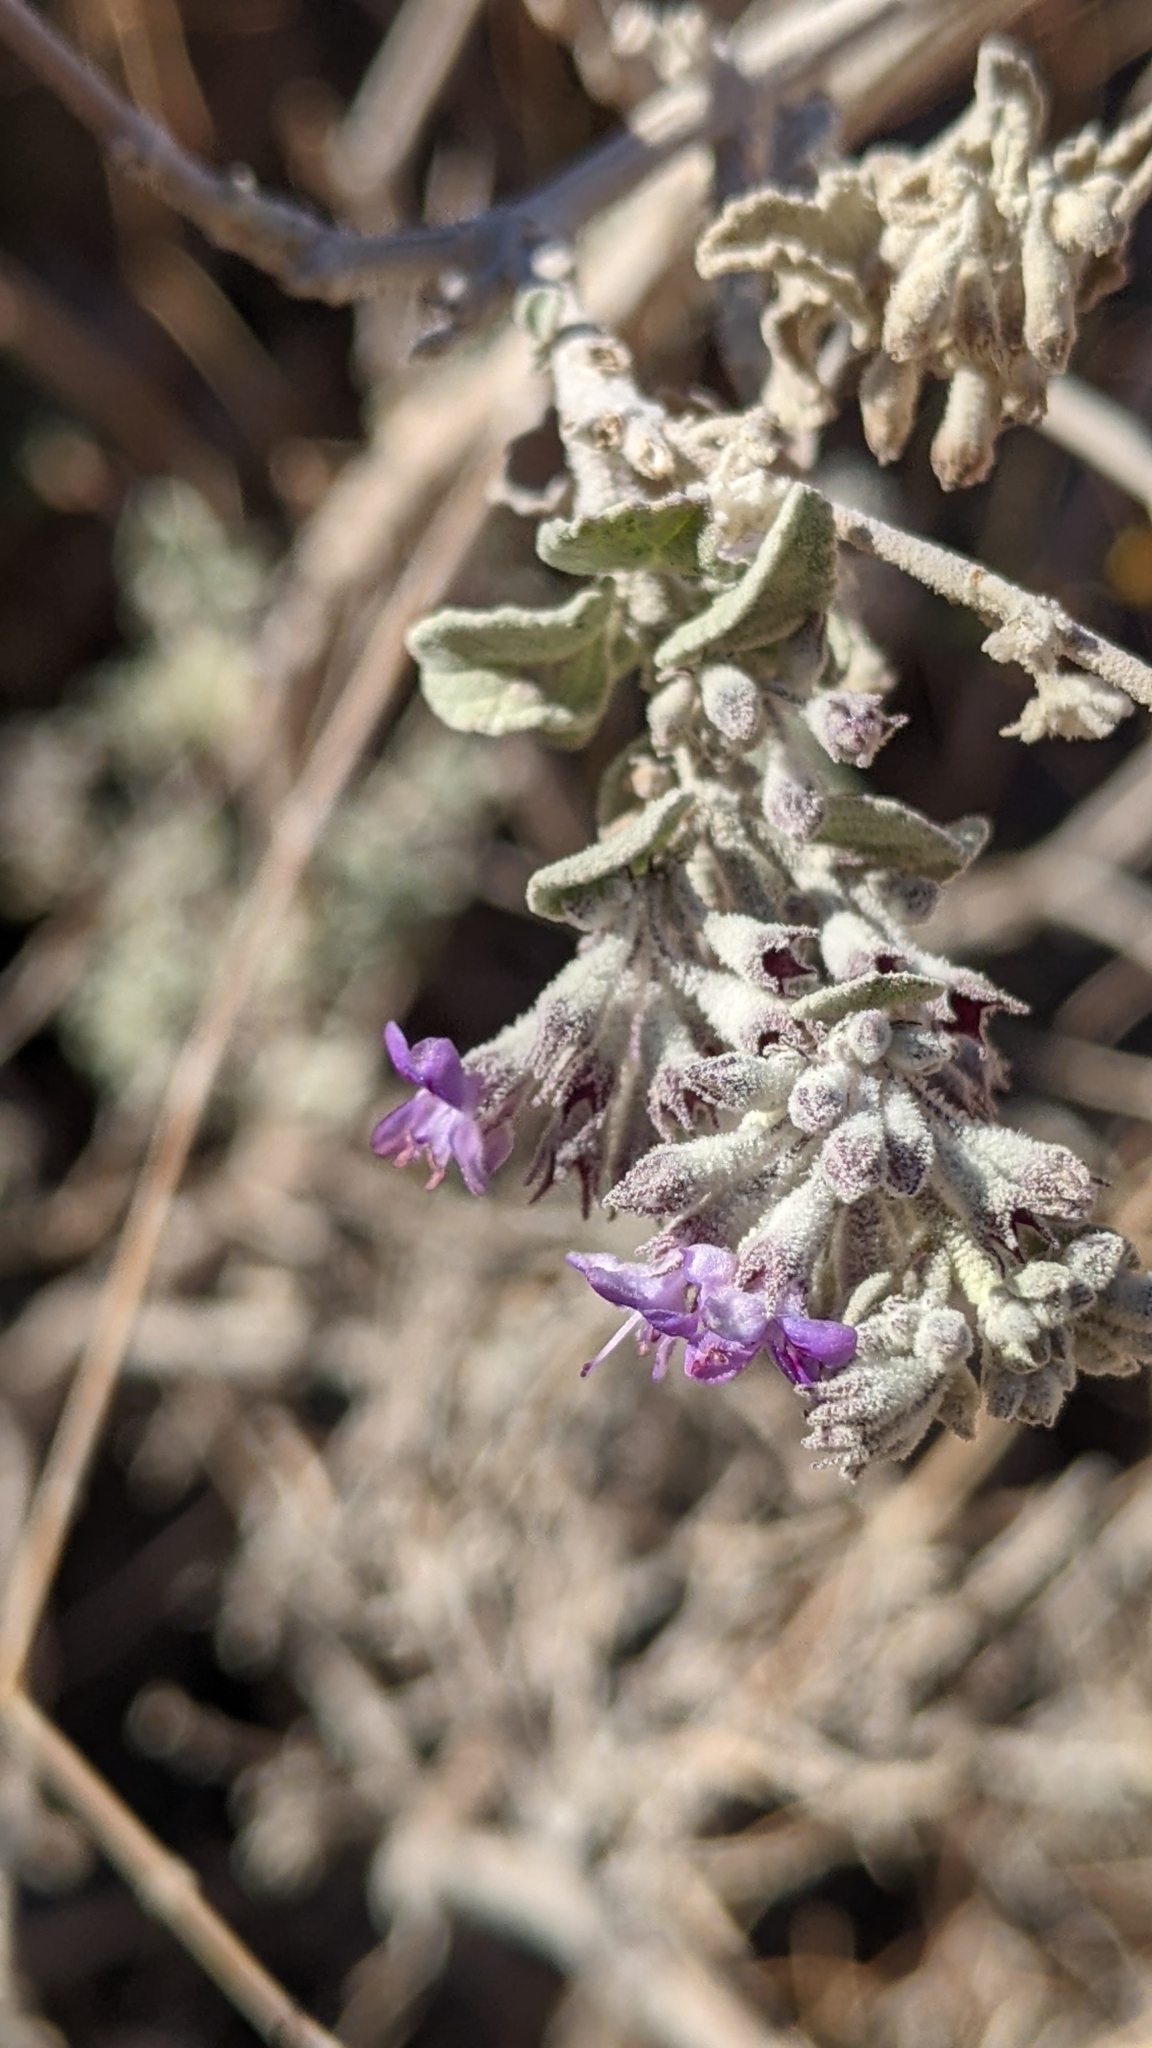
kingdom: Plantae
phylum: Tracheophyta
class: Magnoliopsida
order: Lamiales
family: Lamiaceae
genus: Condea
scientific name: Condea emoryi
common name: Chia
